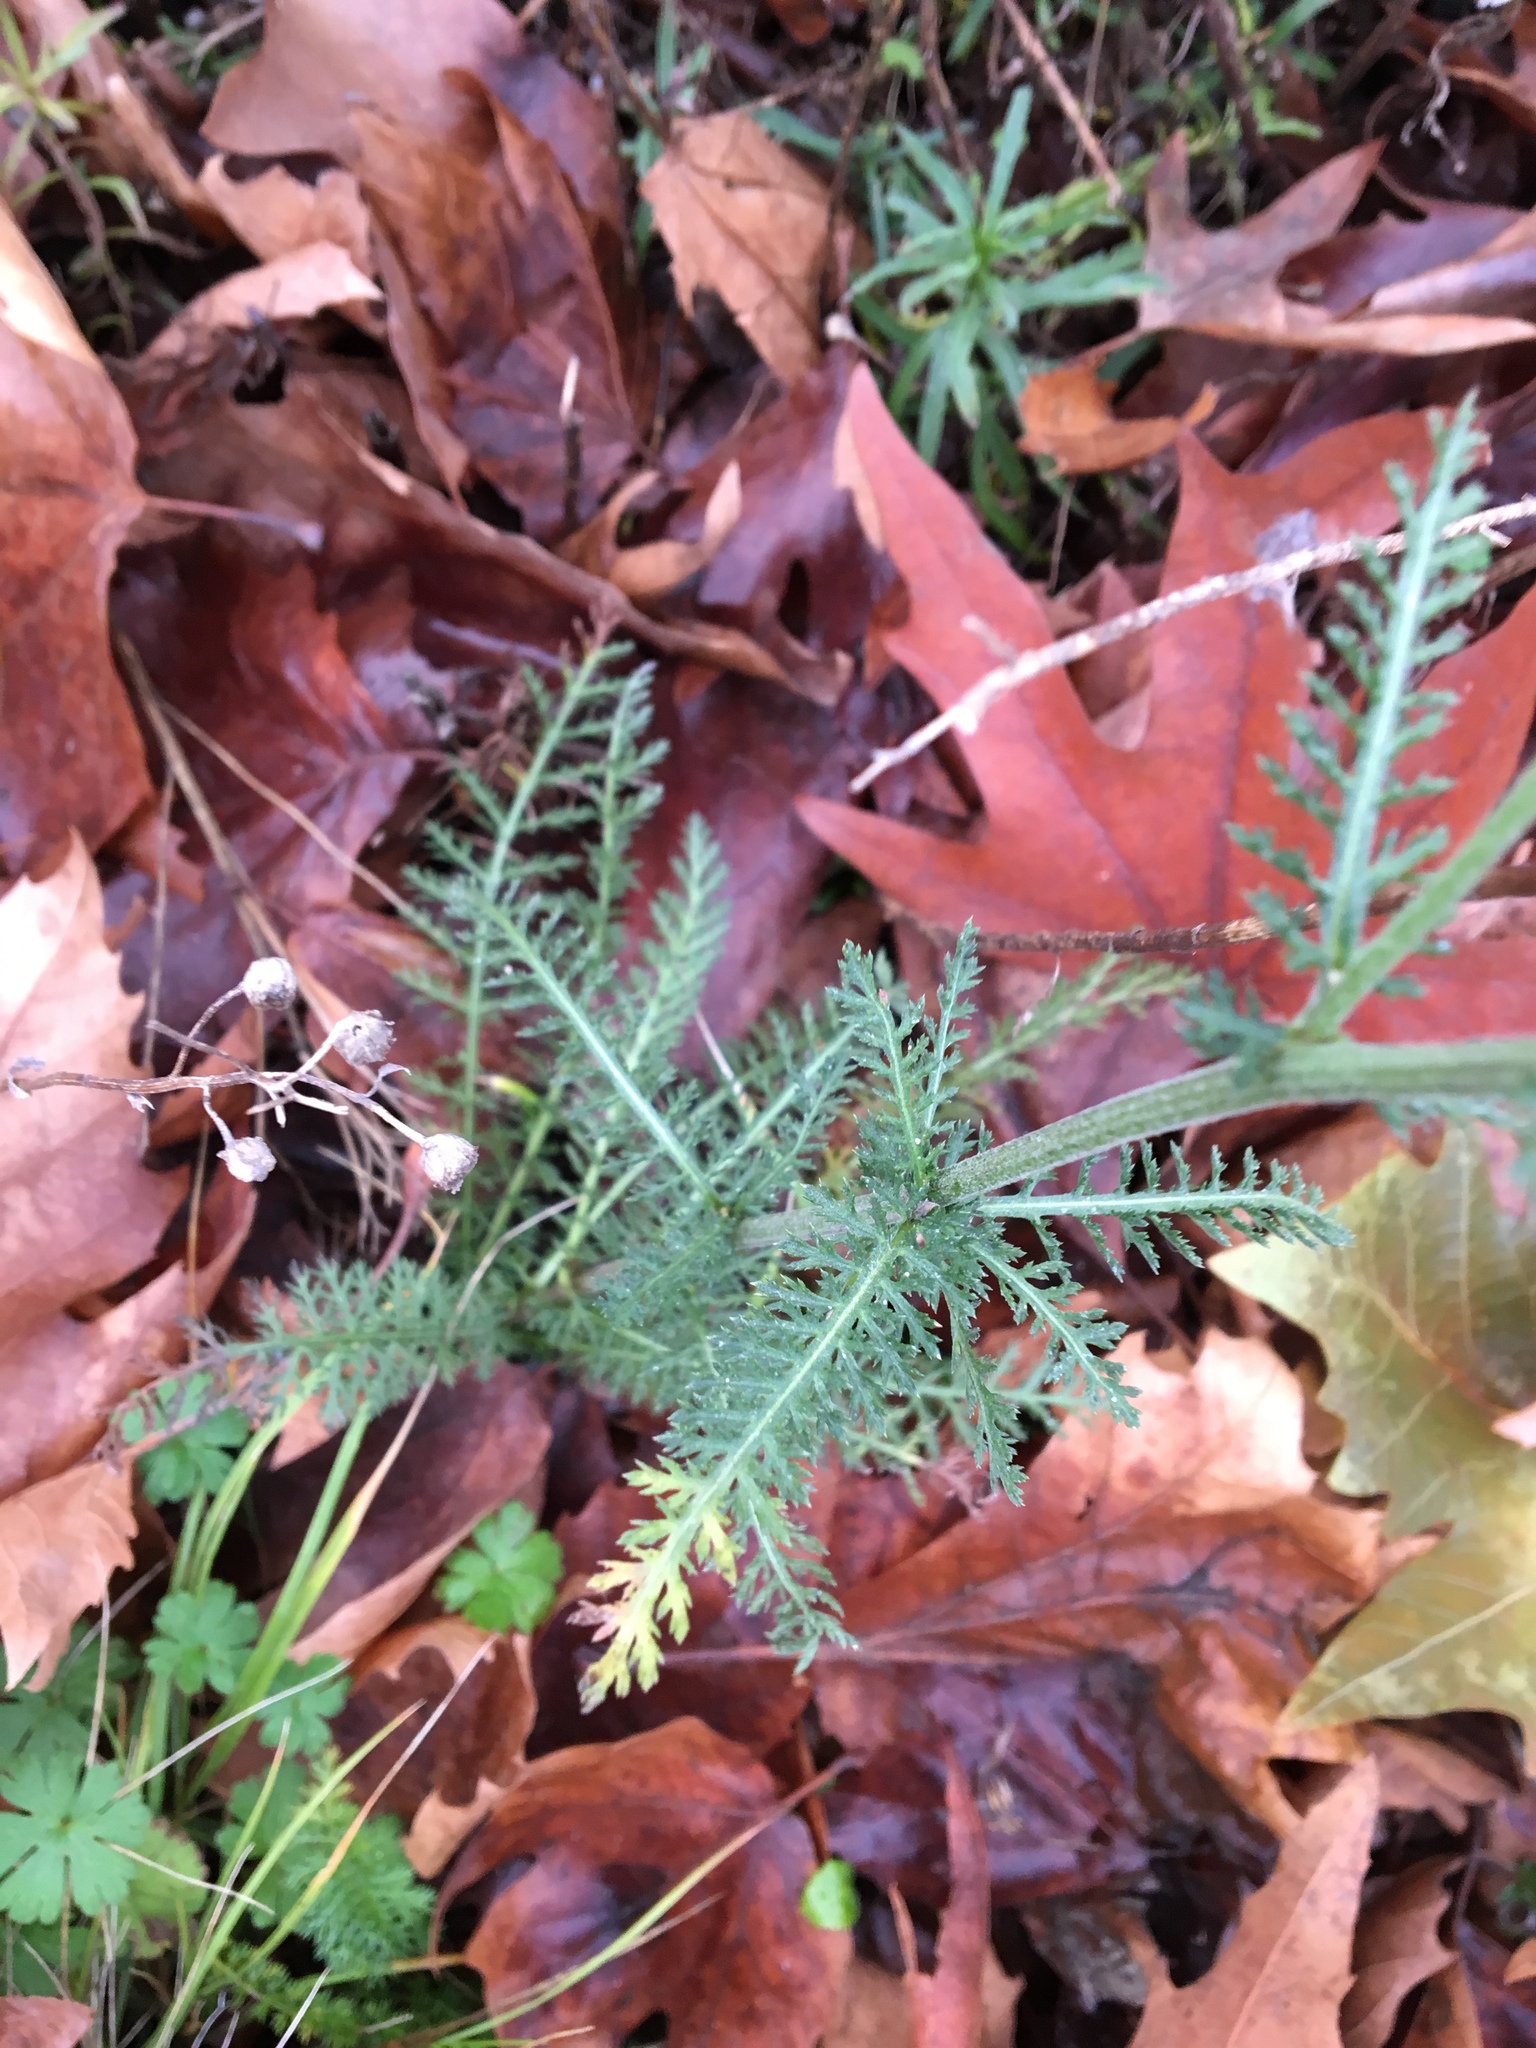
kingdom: Plantae
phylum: Tracheophyta
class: Magnoliopsida
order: Asterales
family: Asteraceae
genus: Achillea
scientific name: Achillea millefolium
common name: Yarrow
